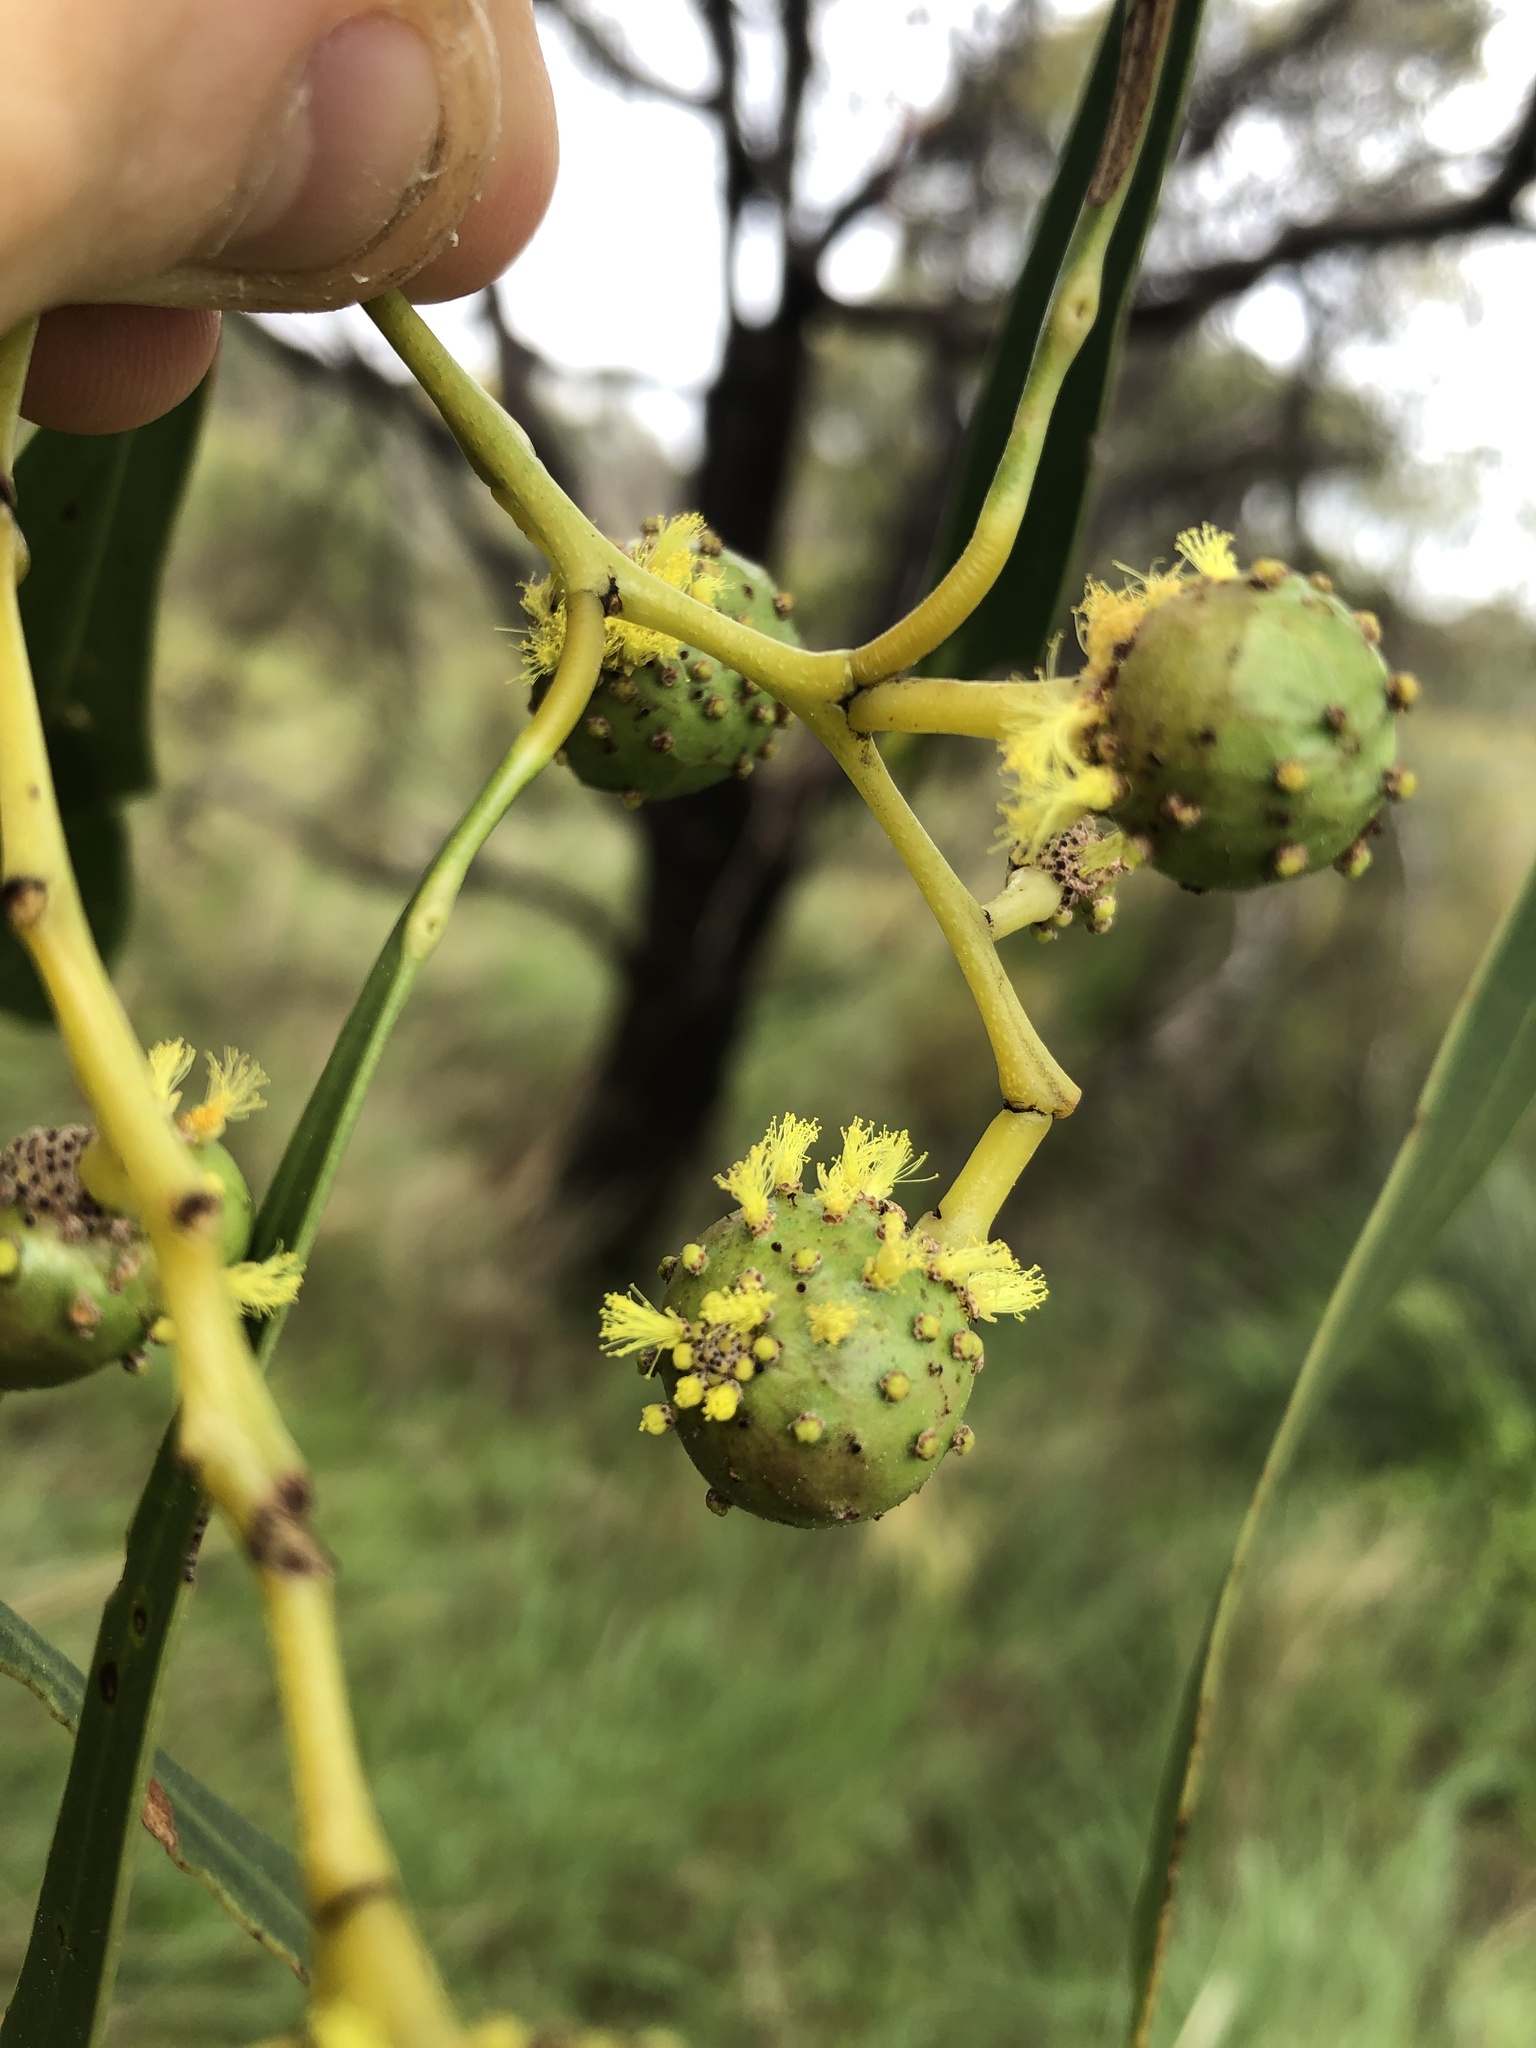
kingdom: Animalia
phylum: Arthropoda
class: Insecta
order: Hymenoptera
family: Pteromalidae
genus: Trichilogaster
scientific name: Trichilogaster signiventris
